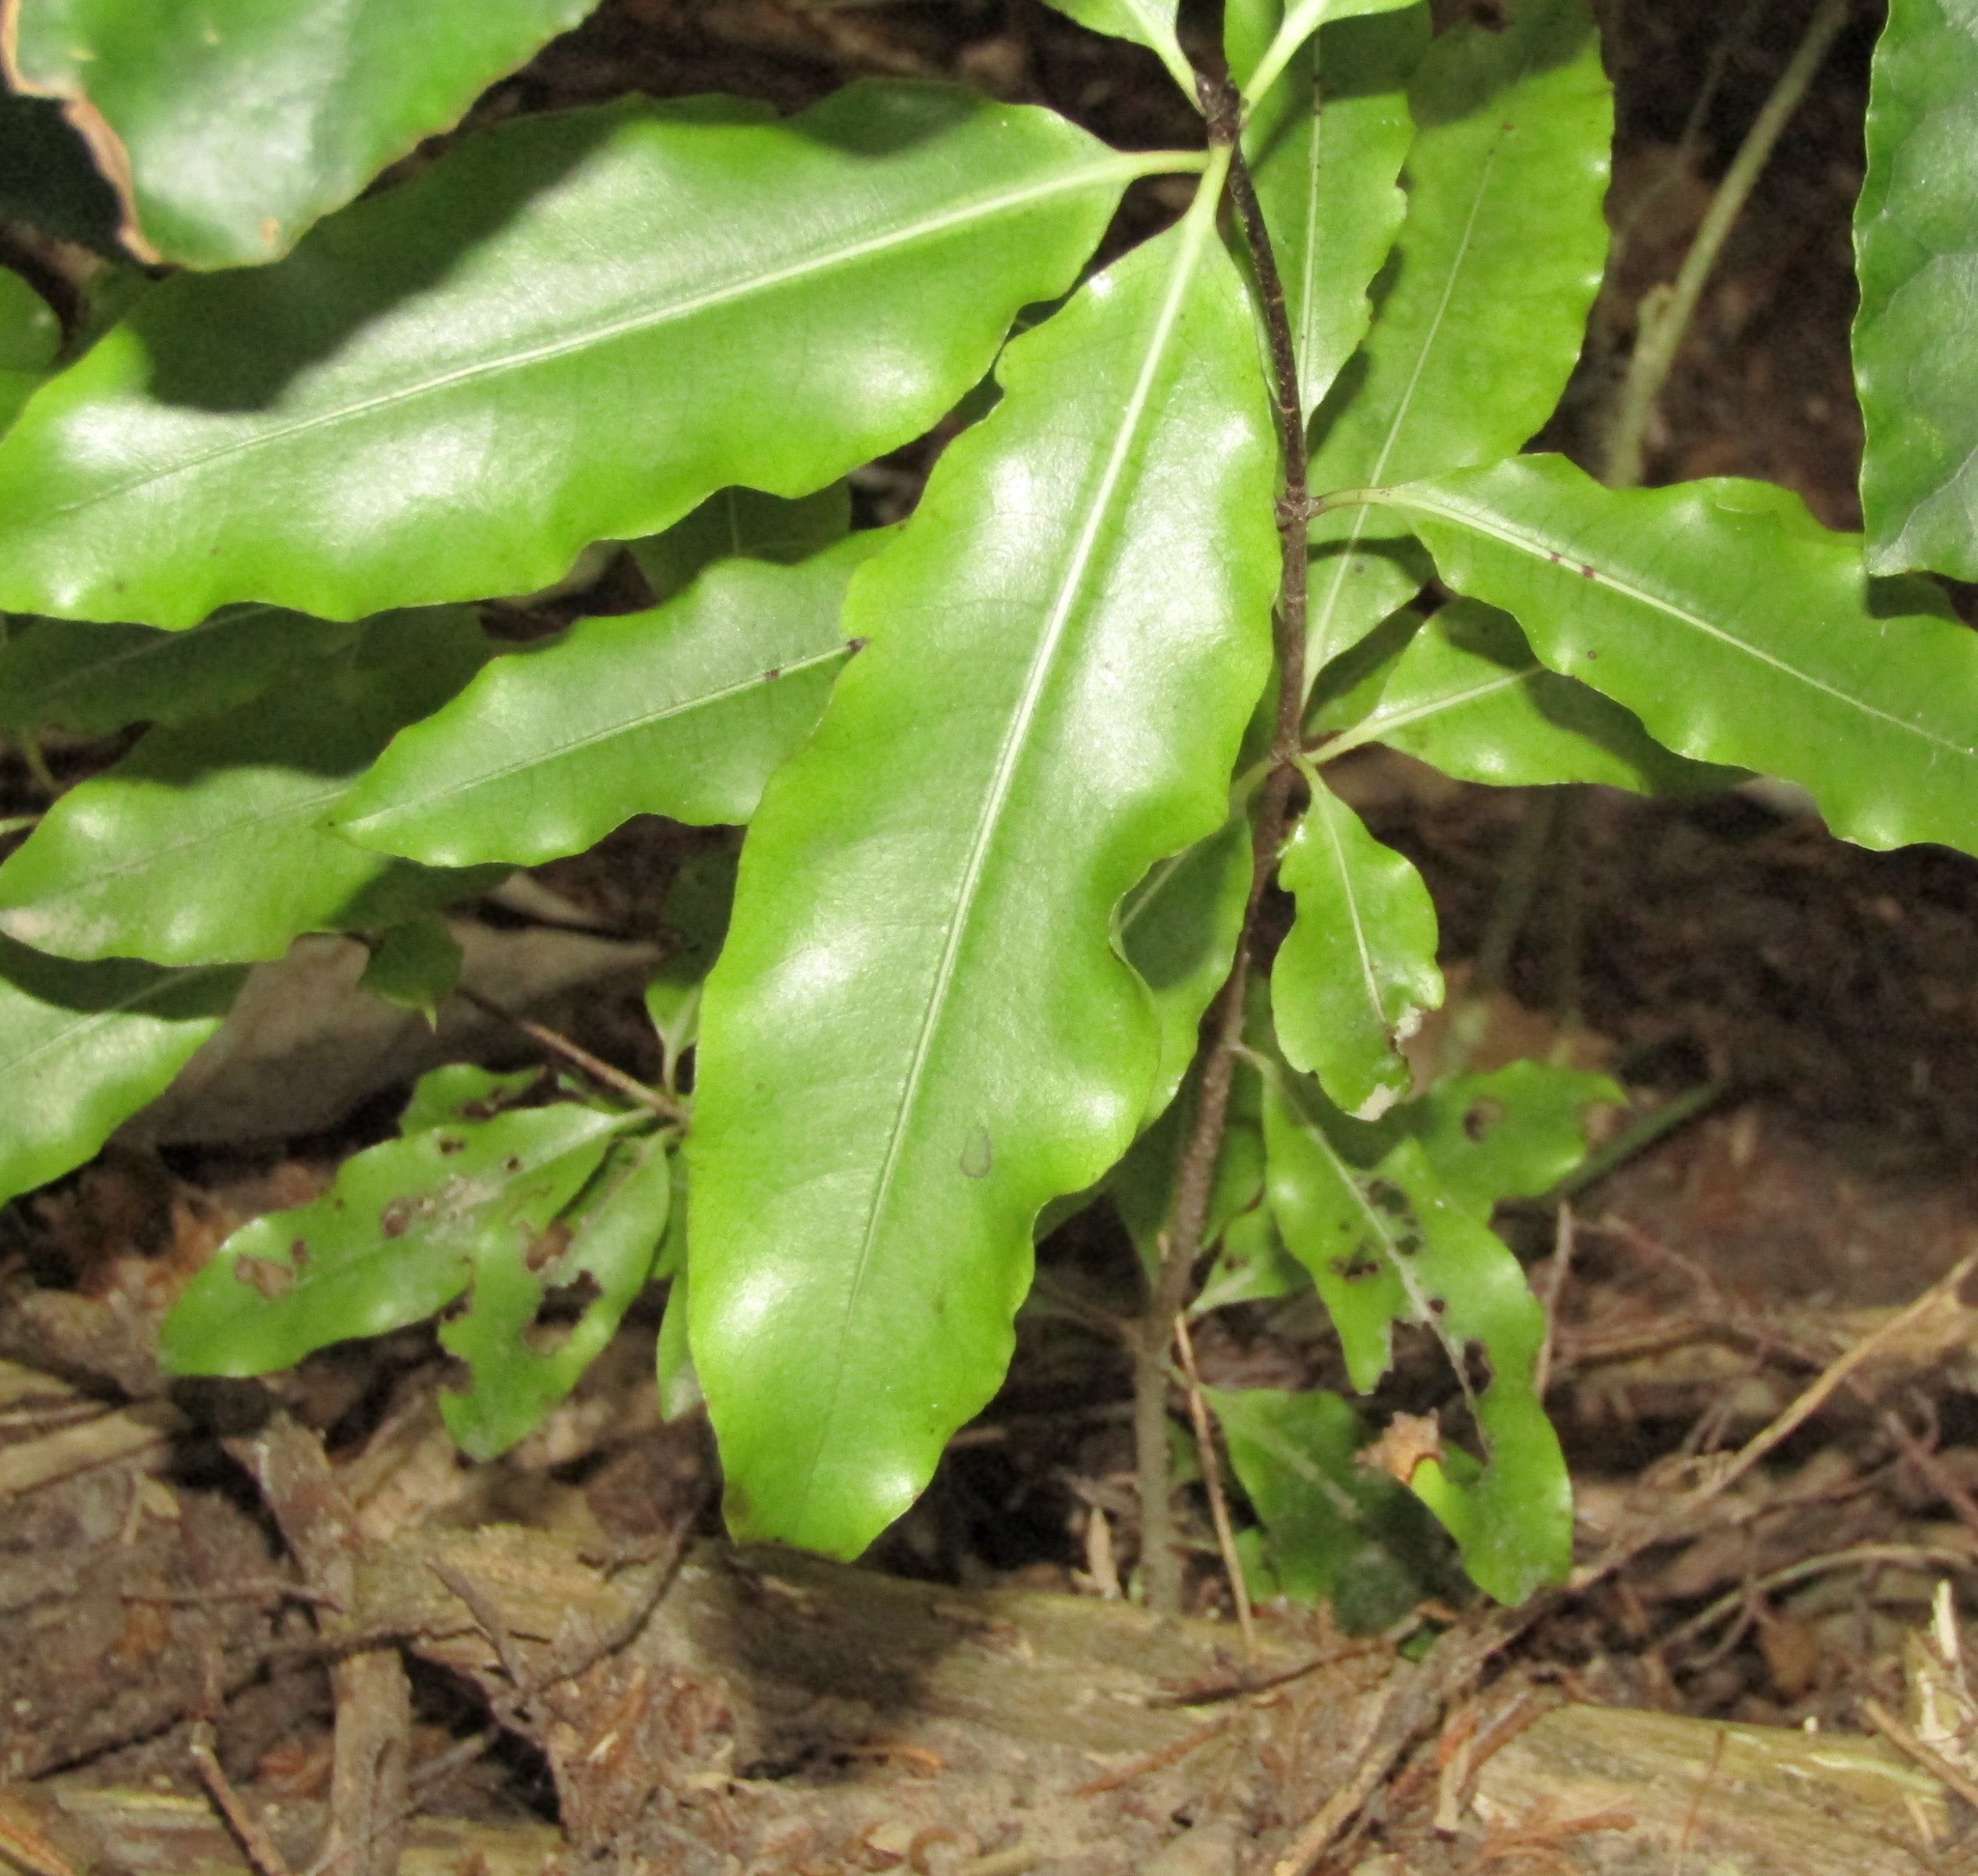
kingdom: Plantae
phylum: Tracheophyta
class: Magnoliopsida
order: Apiales
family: Pittosporaceae
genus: Pittosporum
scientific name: Pittosporum eugenioides
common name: Lemonwood
